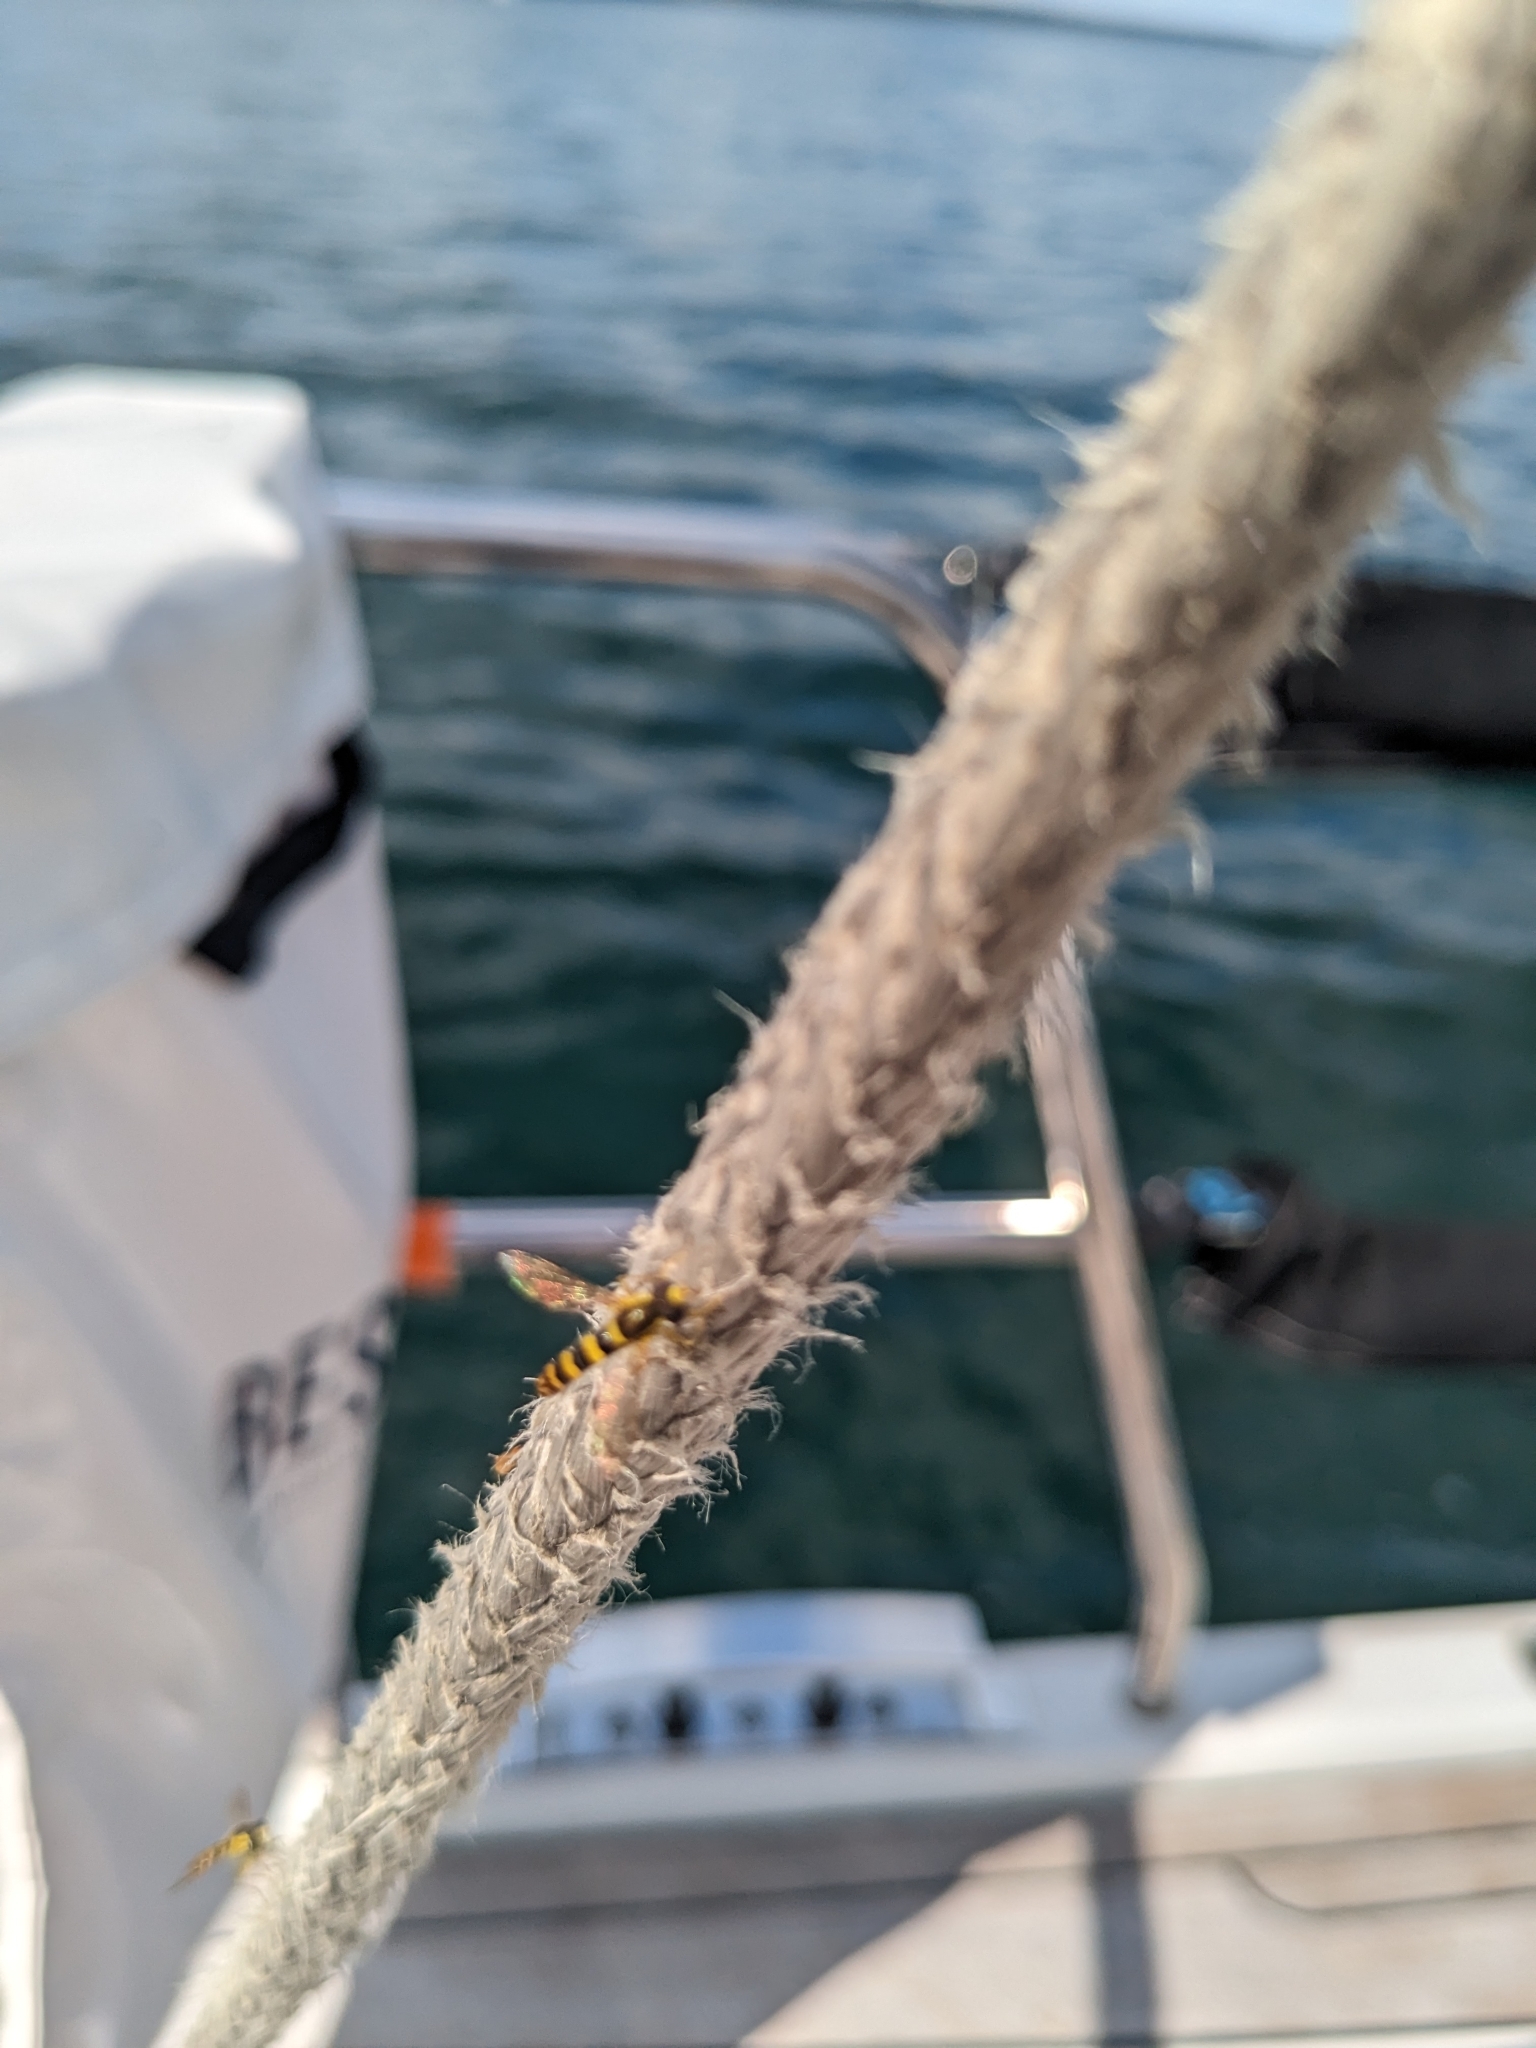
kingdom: Animalia
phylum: Arthropoda
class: Insecta
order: Diptera
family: Syrphidae
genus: Sphaerophoria
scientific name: Sphaerophoria scripta
